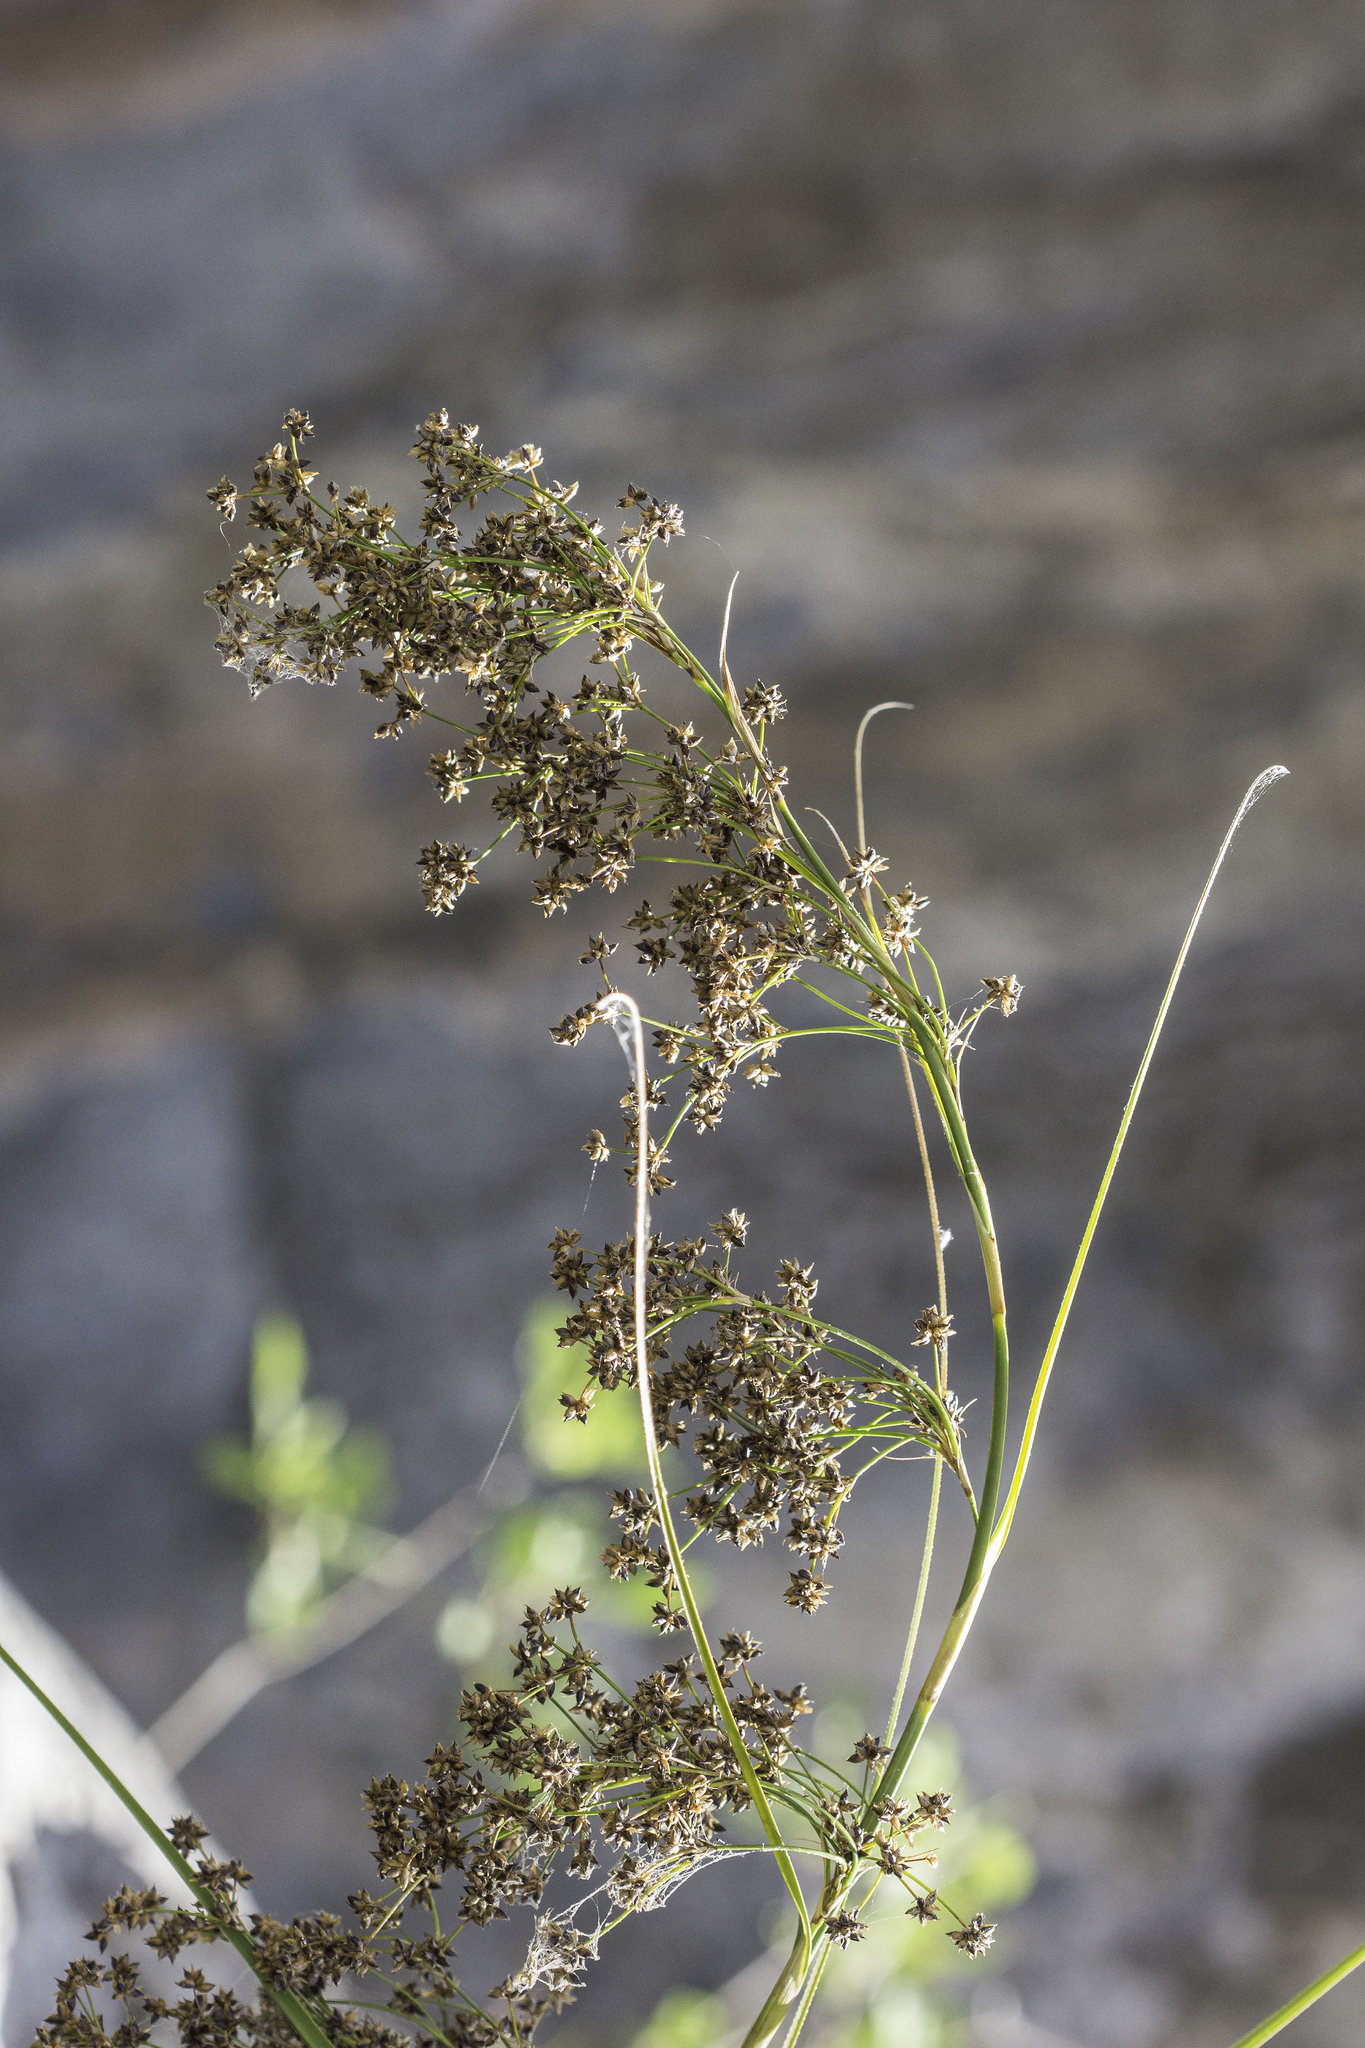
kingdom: Plantae
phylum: Tracheophyta
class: Liliopsida
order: Poales
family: Cyperaceae
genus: Cladium
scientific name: Cladium mariscus
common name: Great fen-sedge
